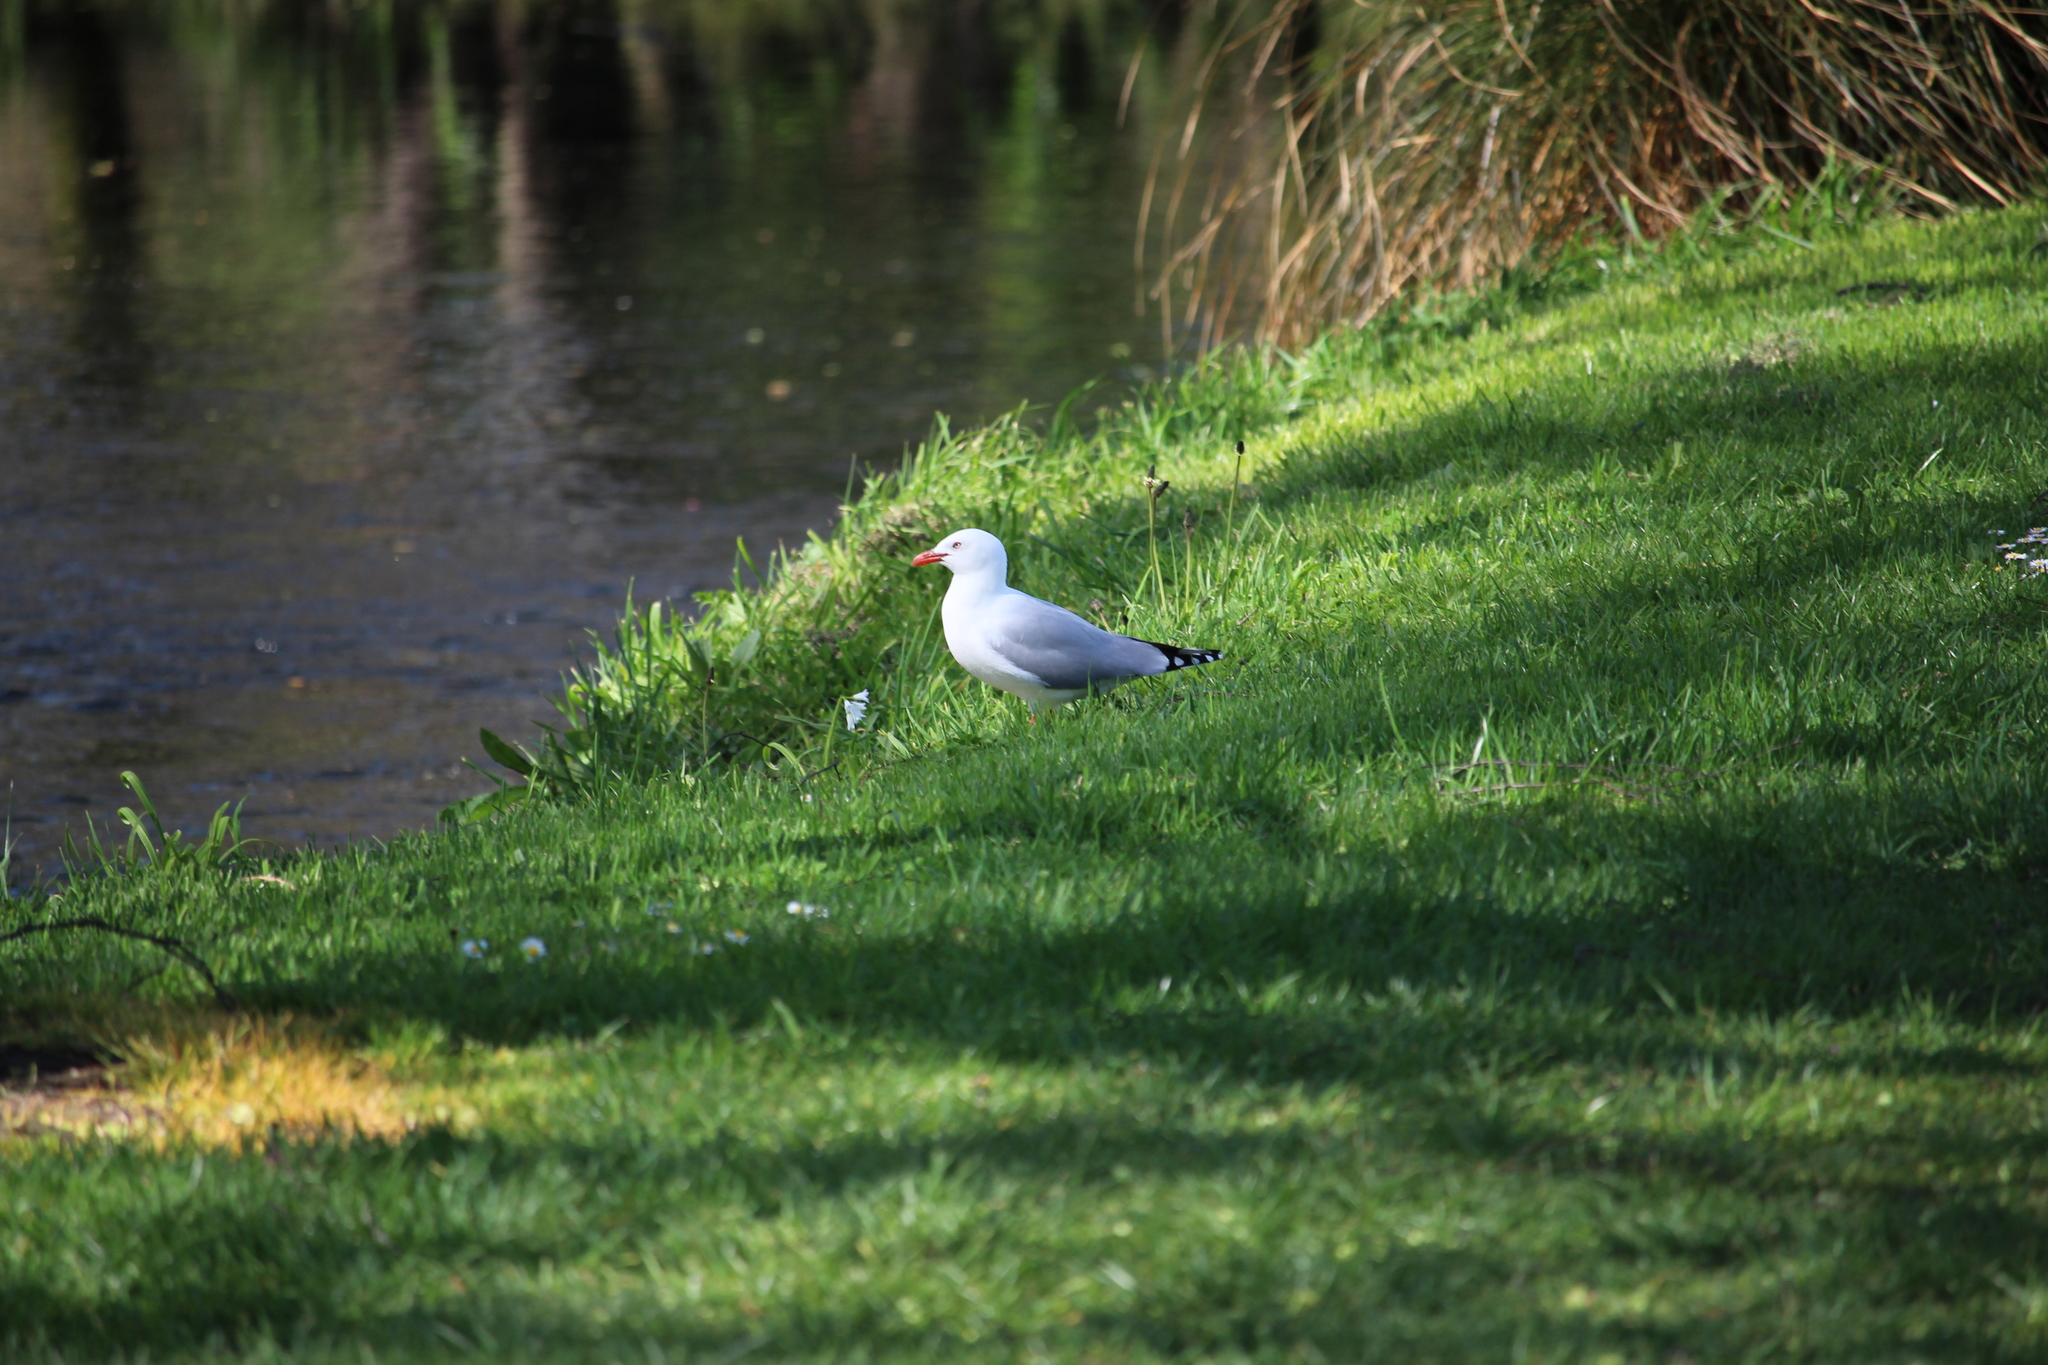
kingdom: Animalia
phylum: Chordata
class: Aves
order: Charadriiformes
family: Laridae
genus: Chroicocephalus
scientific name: Chroicocephalus novaehollandiae
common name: Silver gull
